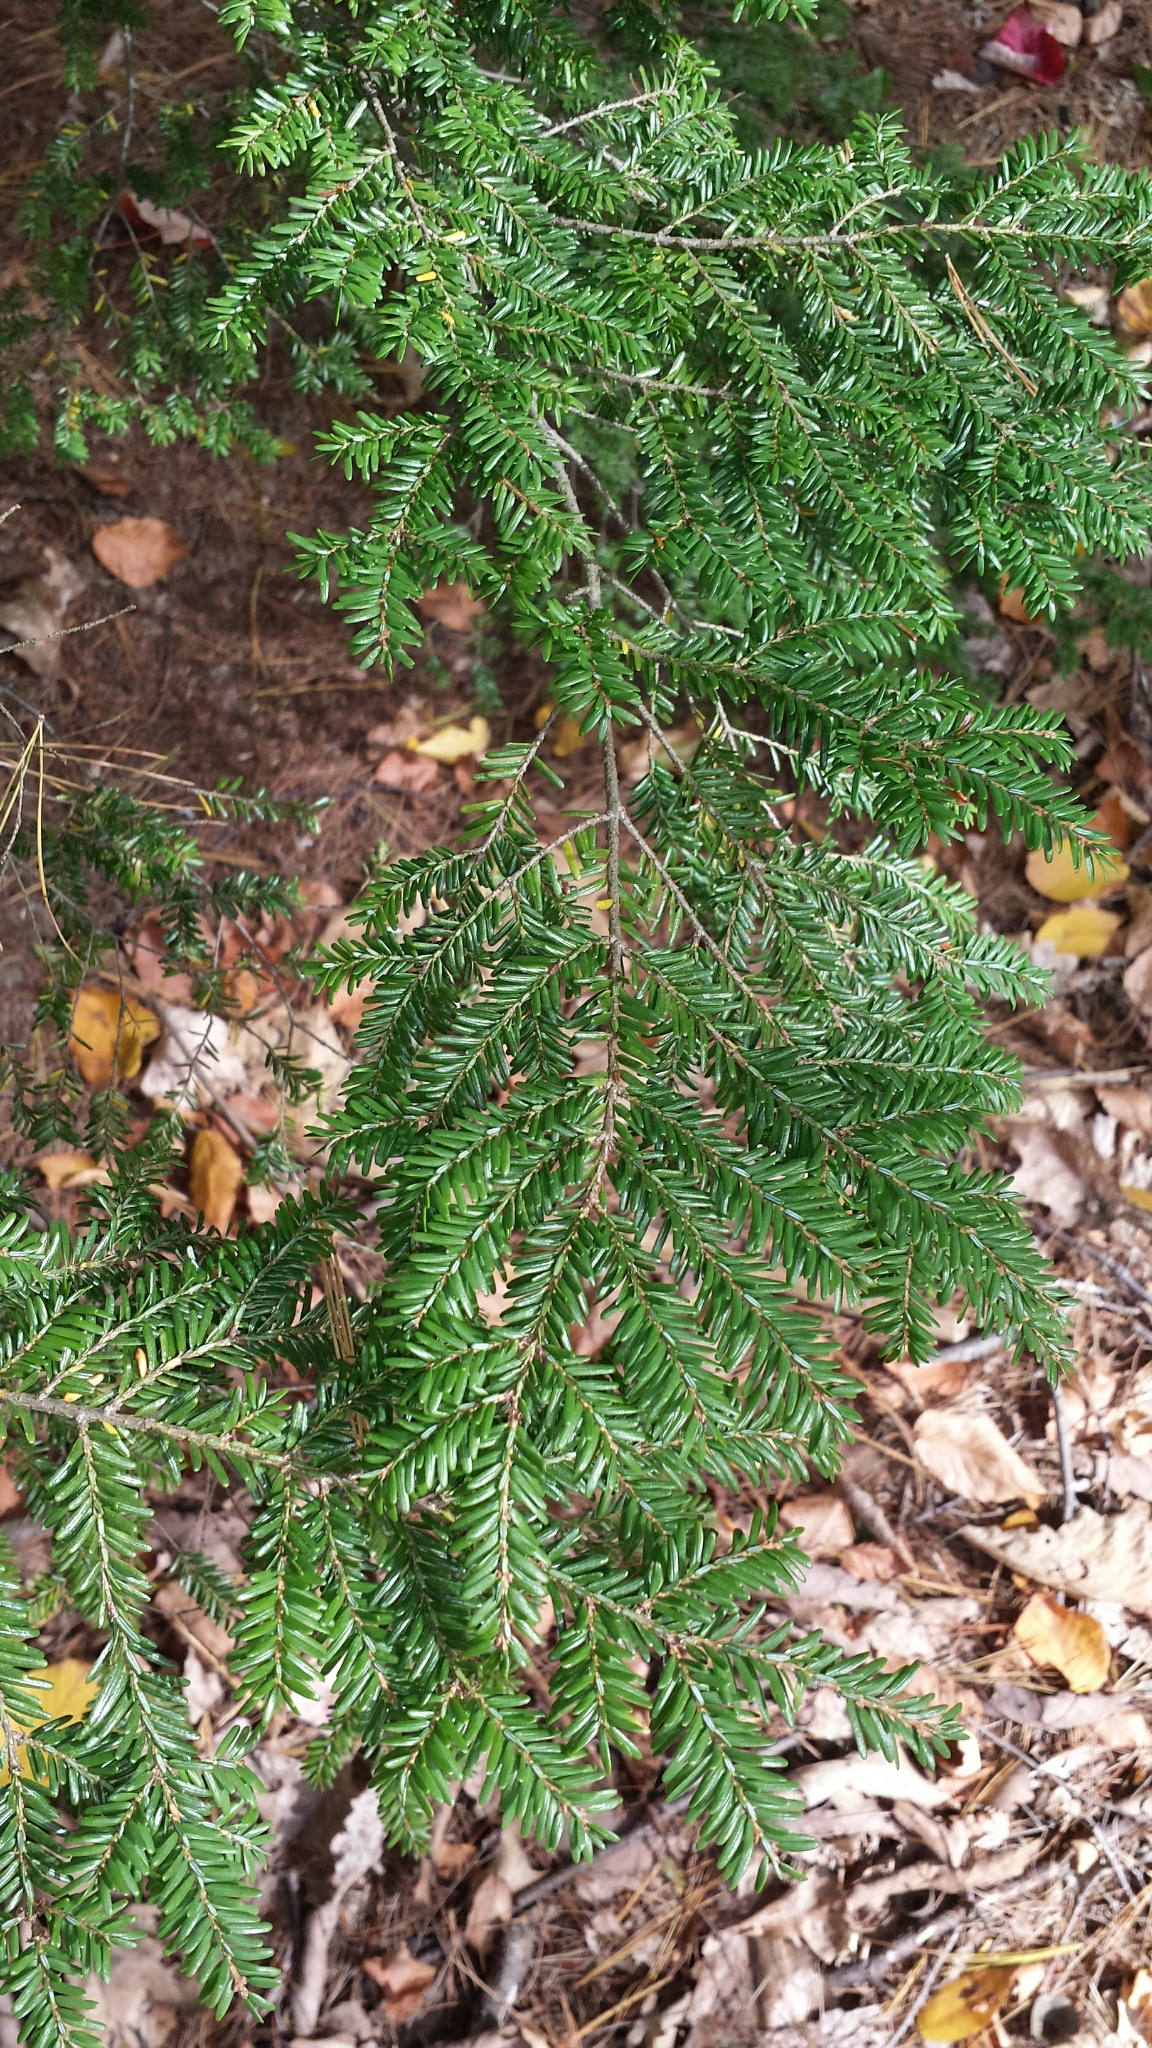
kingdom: Plantae
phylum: Tracheophyta
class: Pinopsida
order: Pinales
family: Pinaceae
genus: Tsuga
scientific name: Tsuga canadensis
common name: Eastern hemlock
